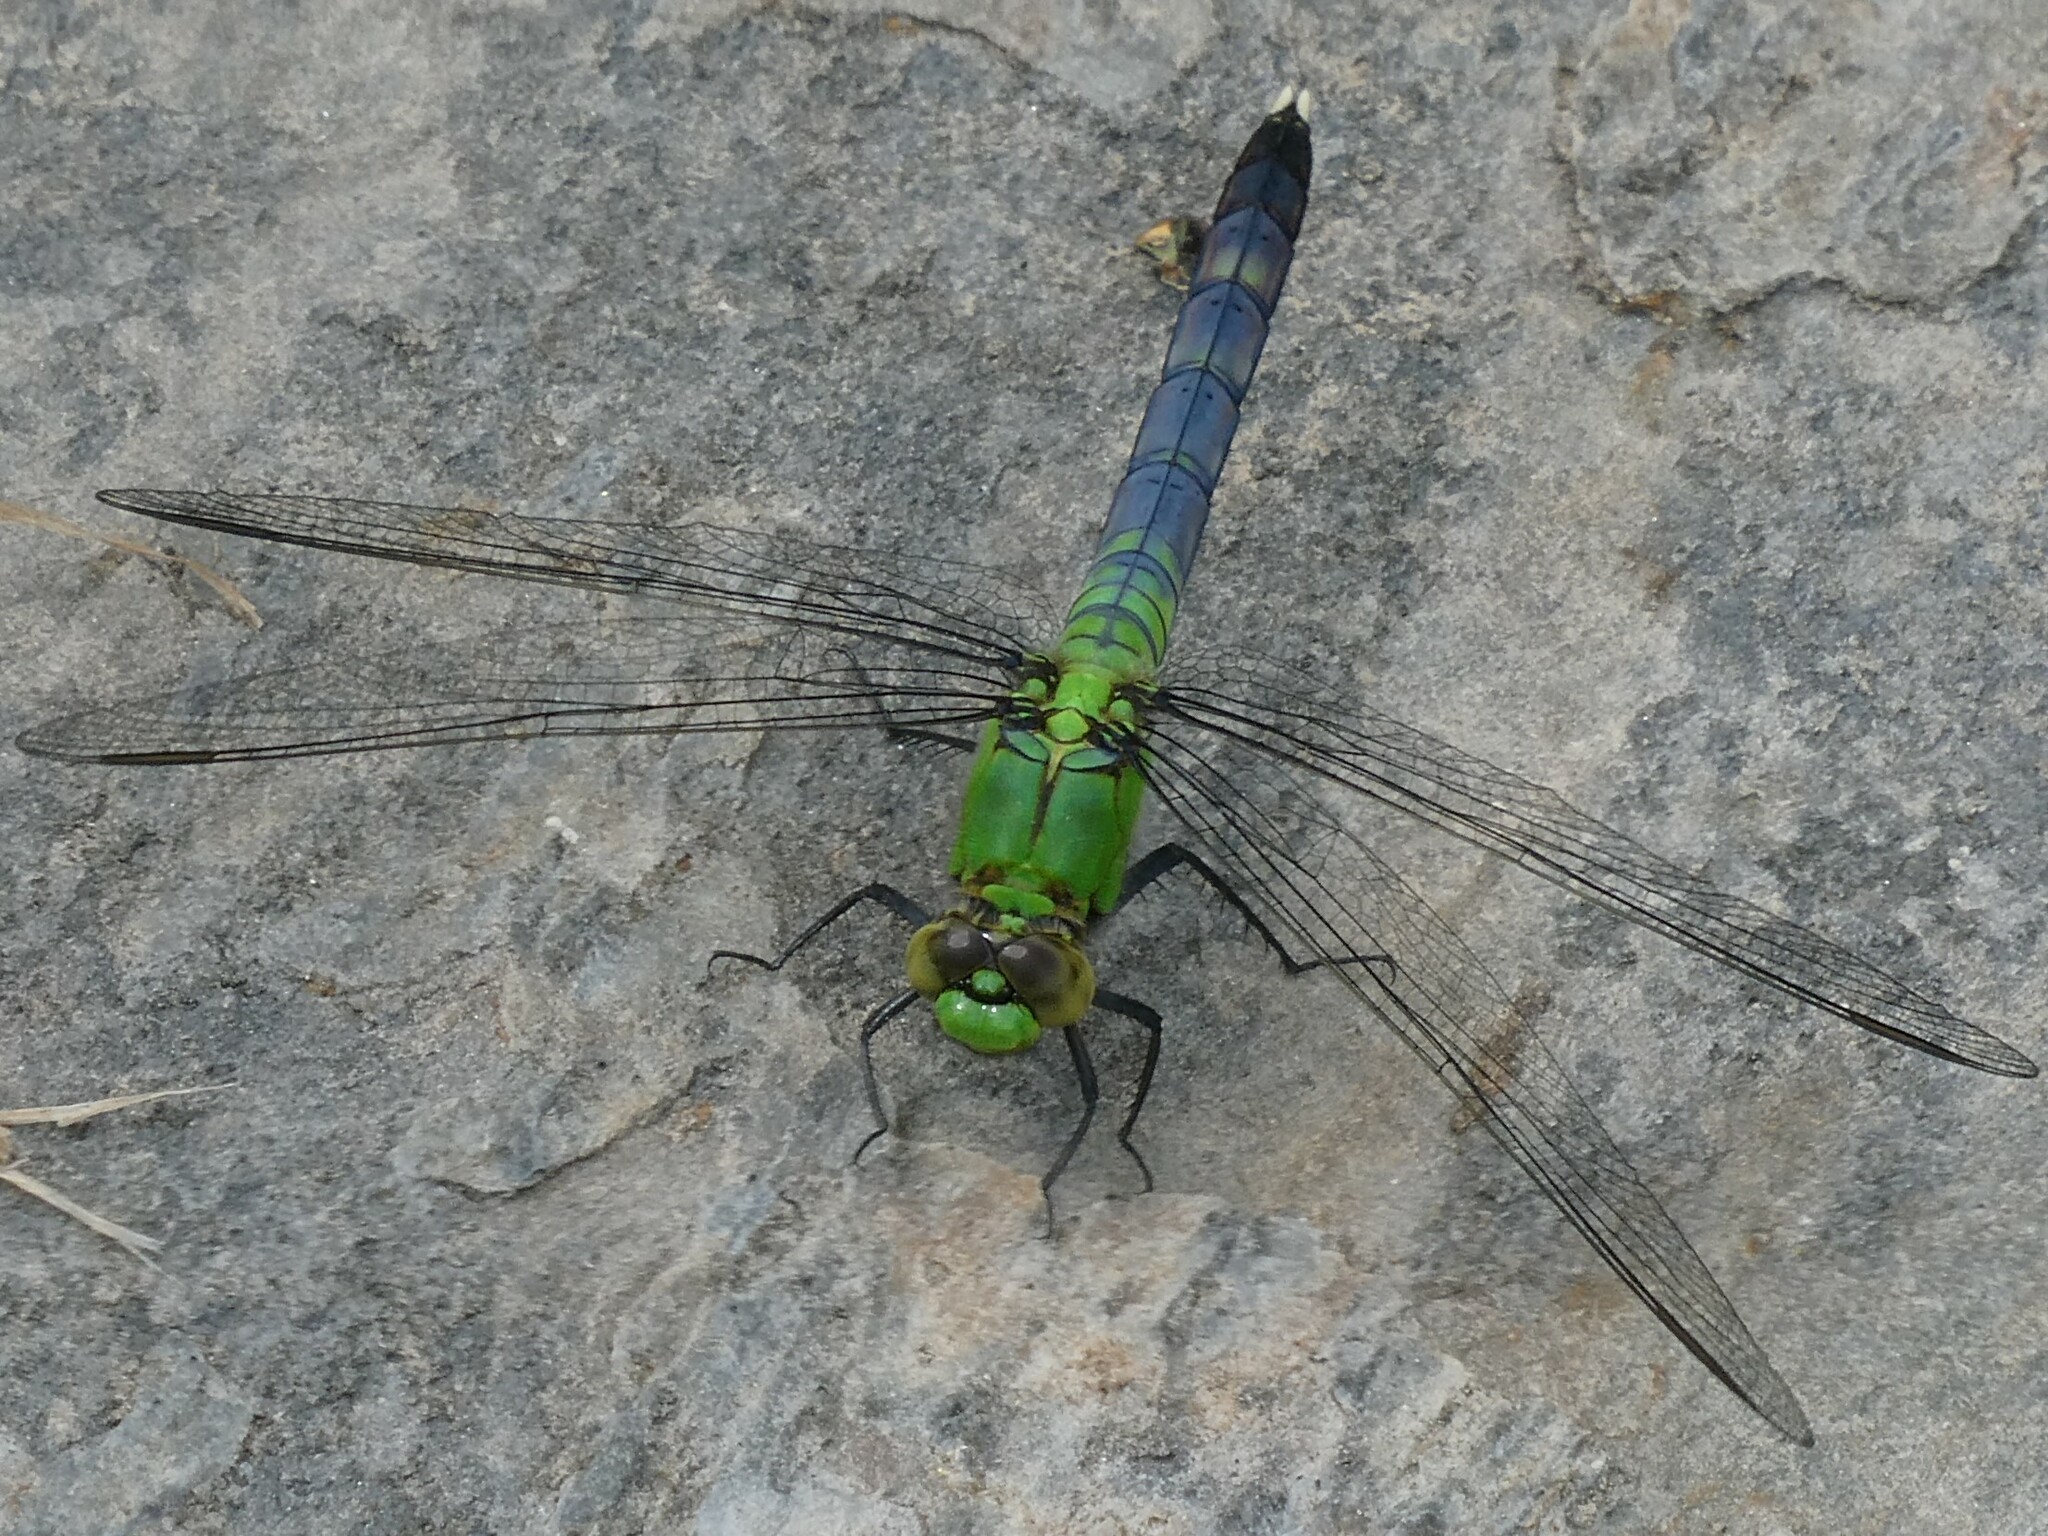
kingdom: Animalia
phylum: Arthropoda
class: Insecta
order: Odonata
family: Libellulidae
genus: Erythemis
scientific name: Erythemis simplicicollis
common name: Eastern pondhawk
